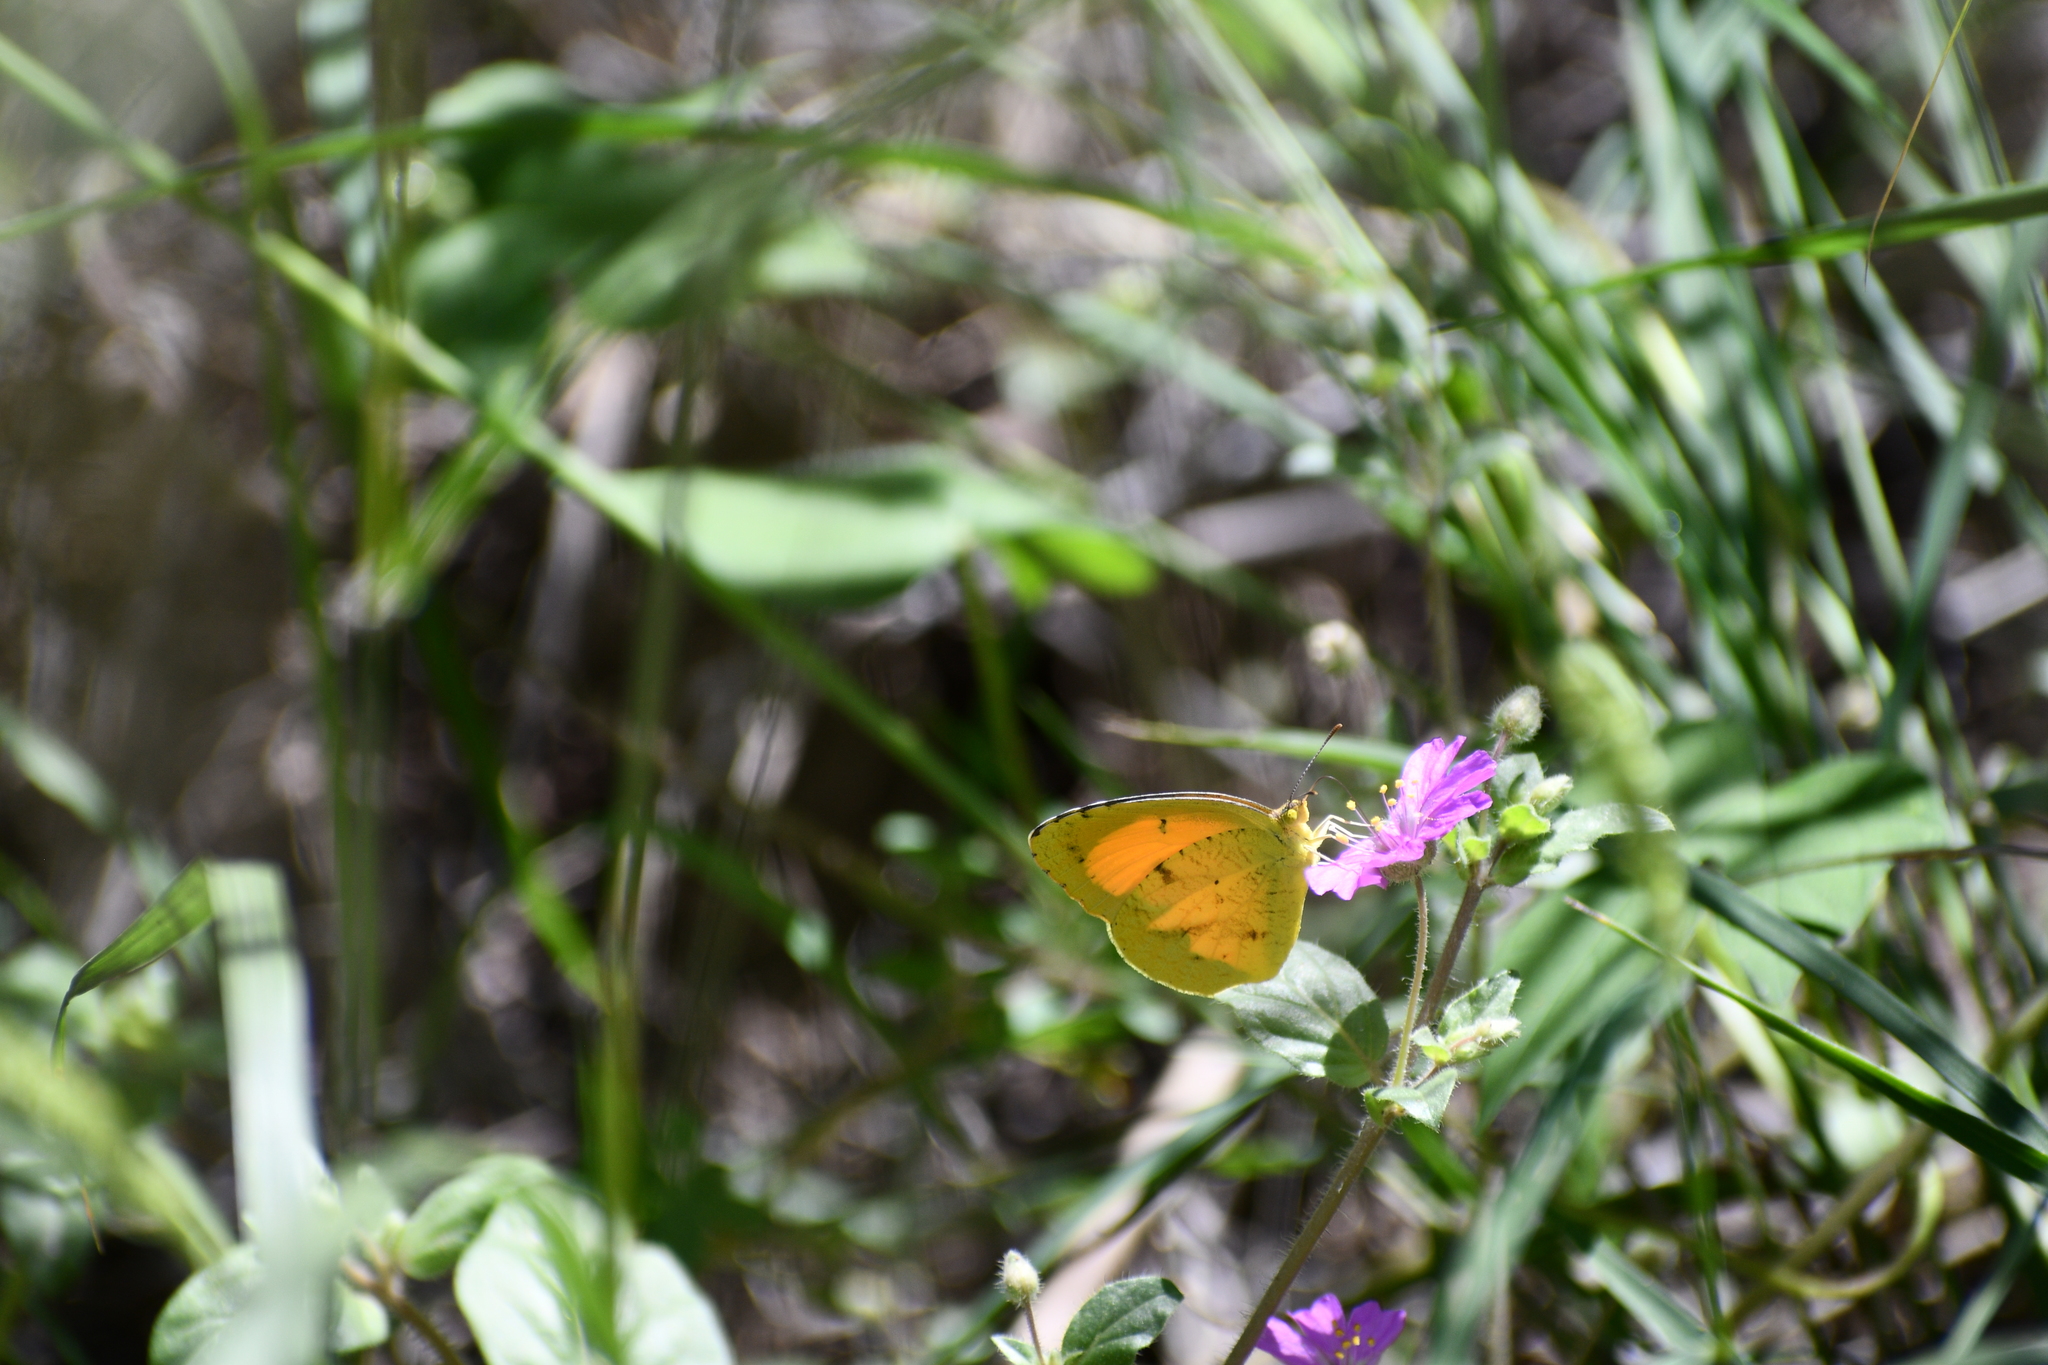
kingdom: Animalia
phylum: Arthropoda
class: Insecta
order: Lepidoptera
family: Pieridae
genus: Abaeis
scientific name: Abaeis nicippe
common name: Sleepy orange
